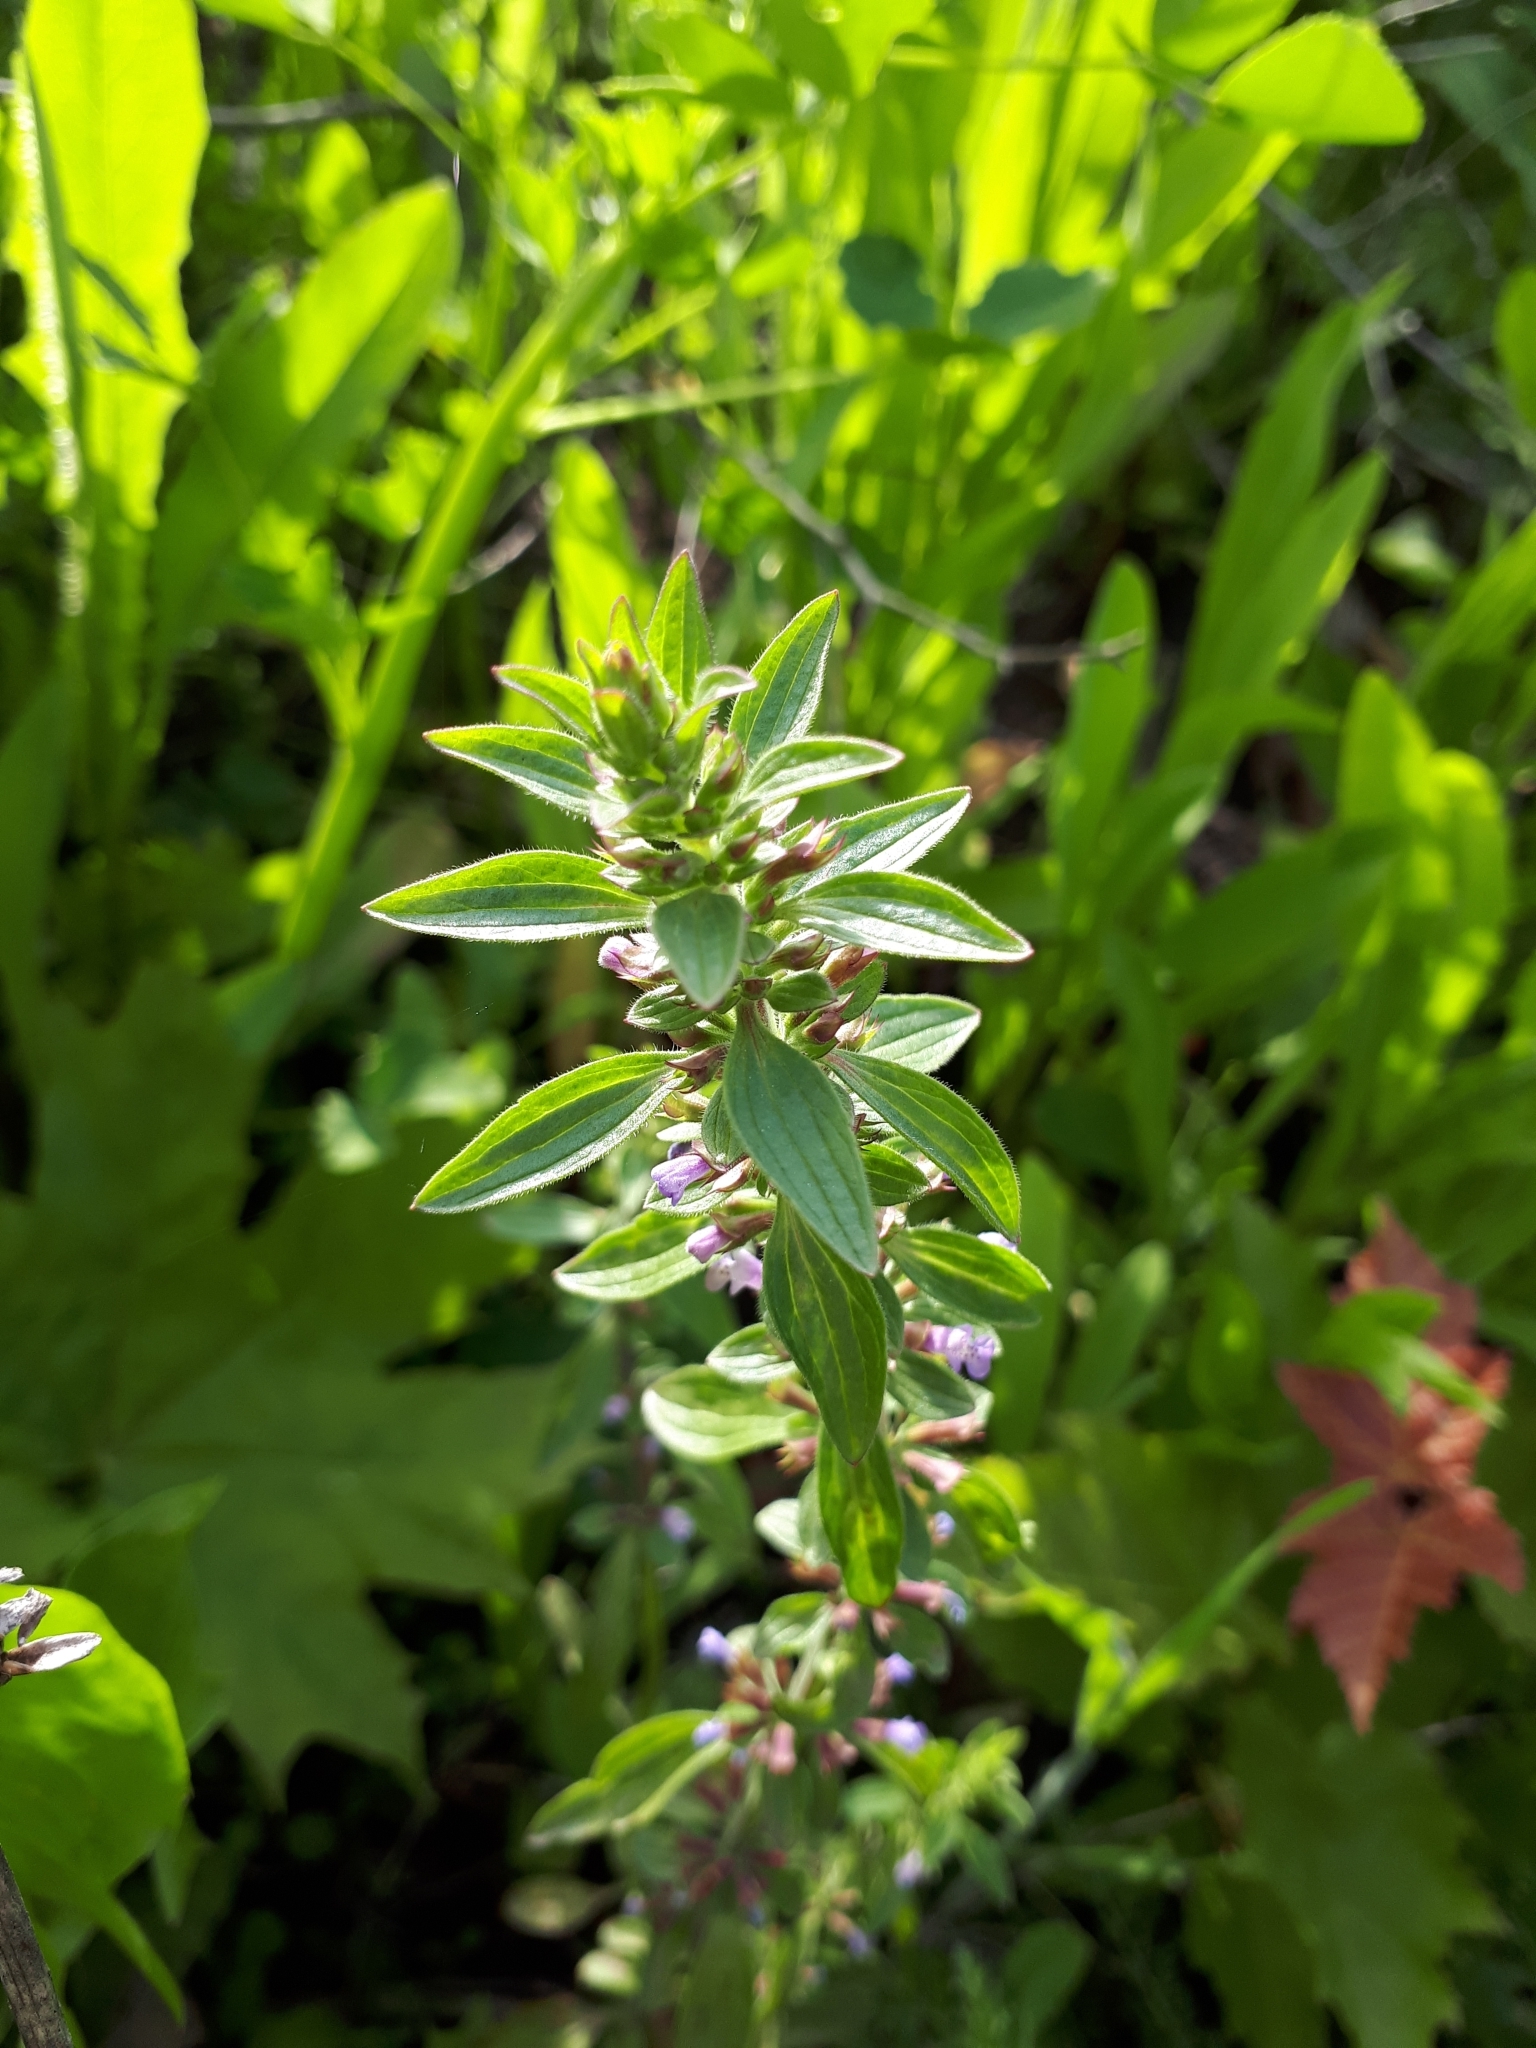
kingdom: Plantae
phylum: Tracheophyta
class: Magnoliopsida
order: Lamiales
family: Lamiaceae
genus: Dracocephalum
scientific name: Dracocephalum thymiflorum
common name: Thymeleaf dragonhead
